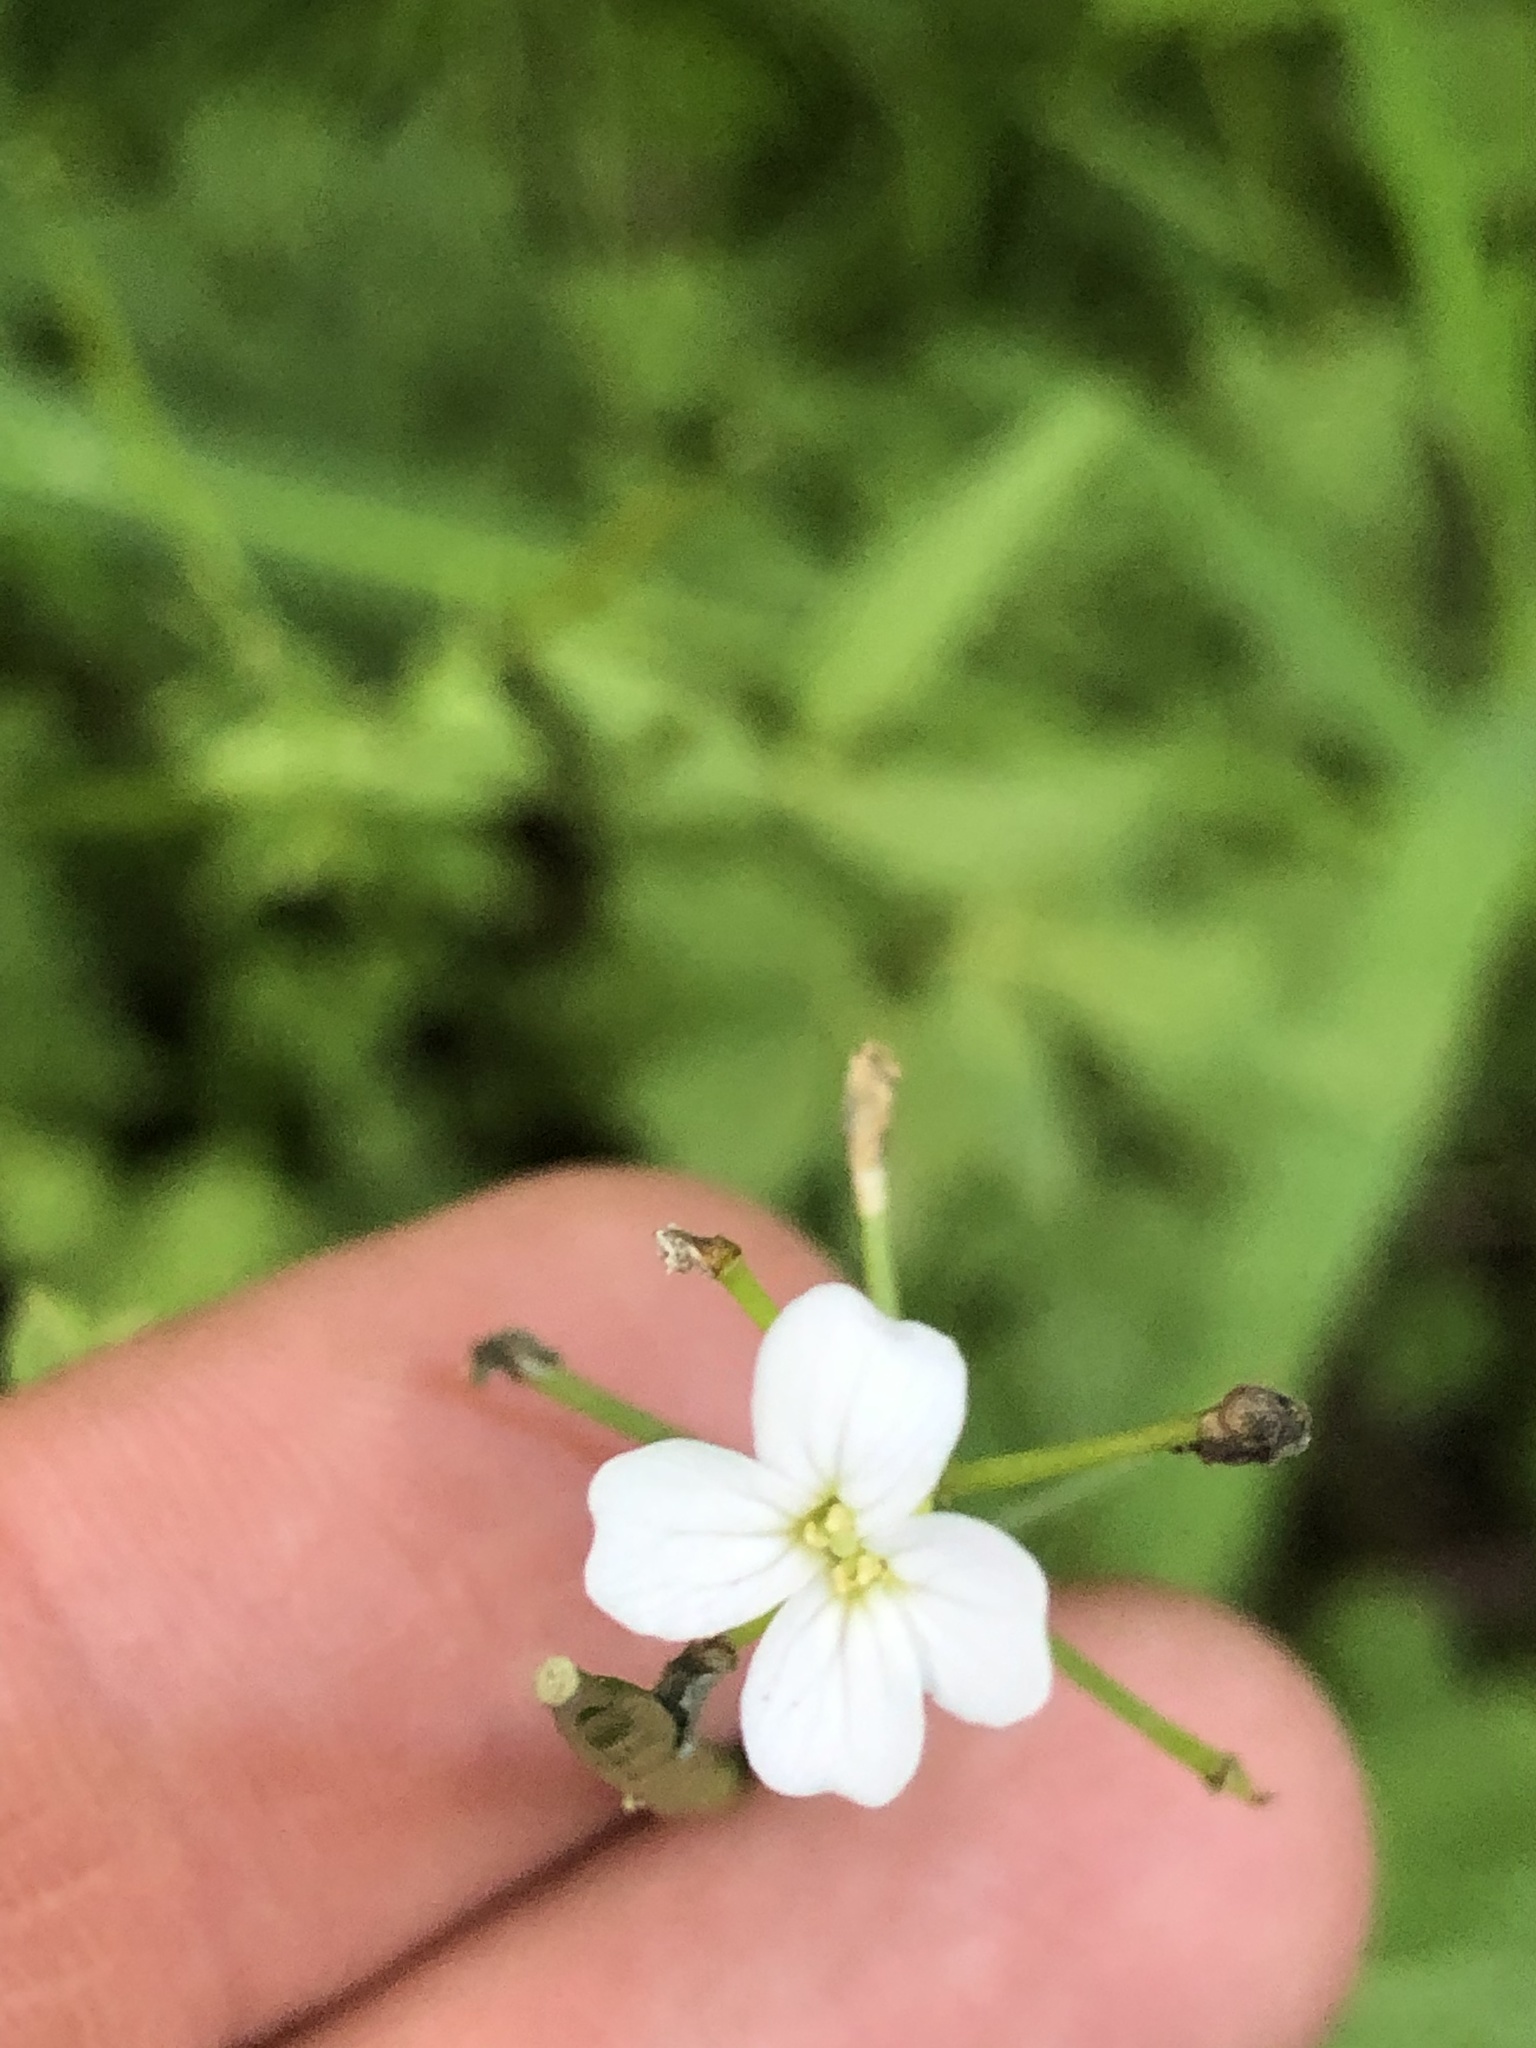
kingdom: Plantae
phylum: Tracheophyta
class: Magnoliopsida
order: Brassicales
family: Brassicaceae
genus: Cardamine
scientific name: Cardamine angulata
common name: Angled bittercress
